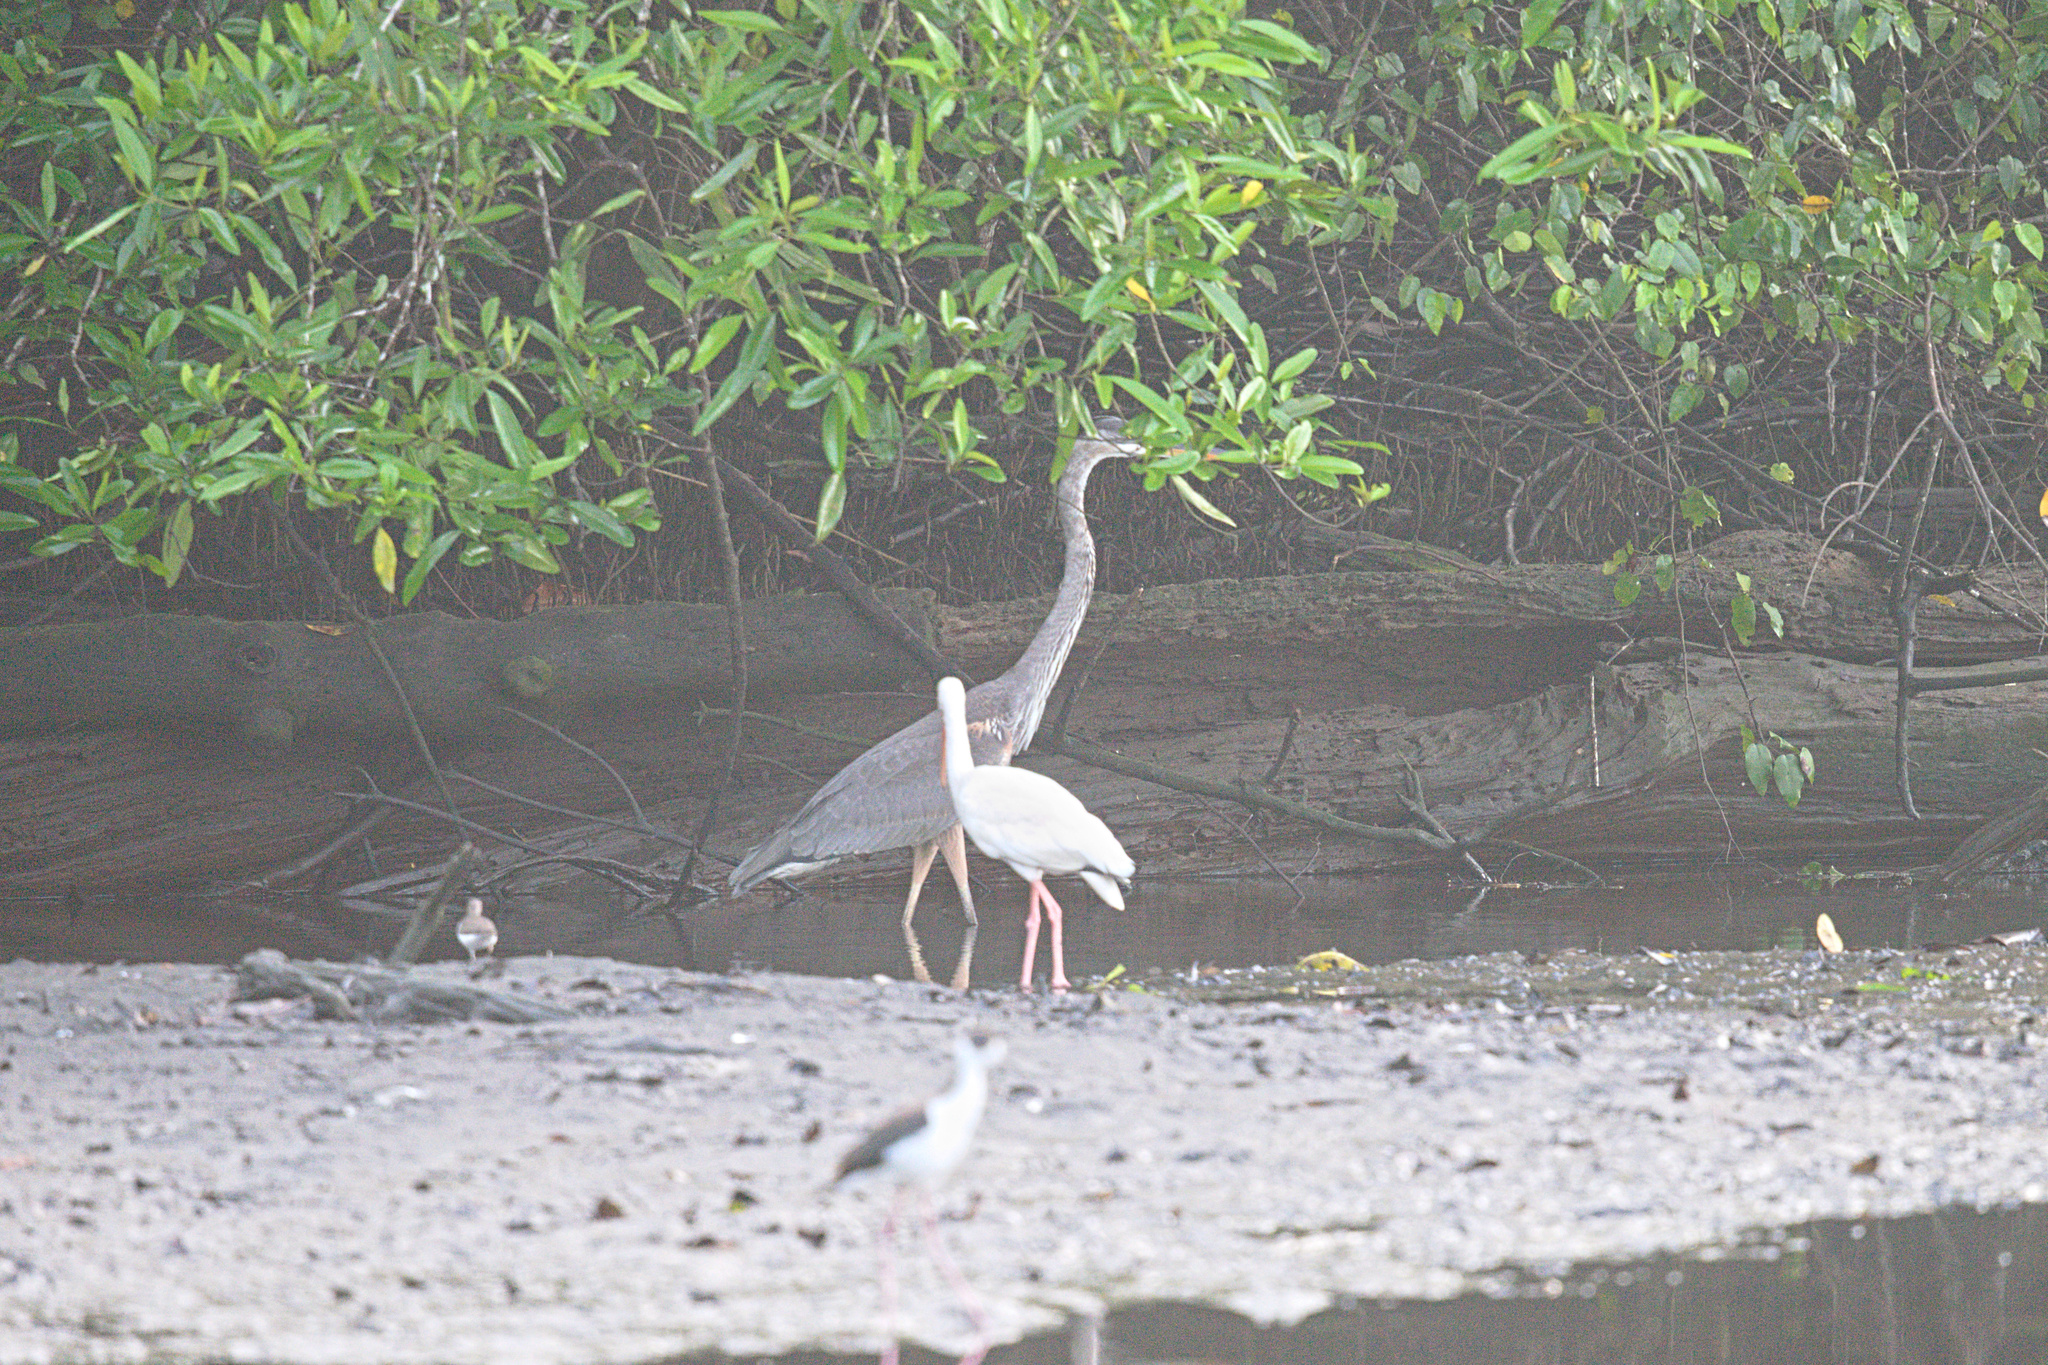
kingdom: Animalia
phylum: Chordata
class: Aves
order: Pelecaniformes
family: Ardeidae
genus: Ardea
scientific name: Ardea herodias
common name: Great blue heron
